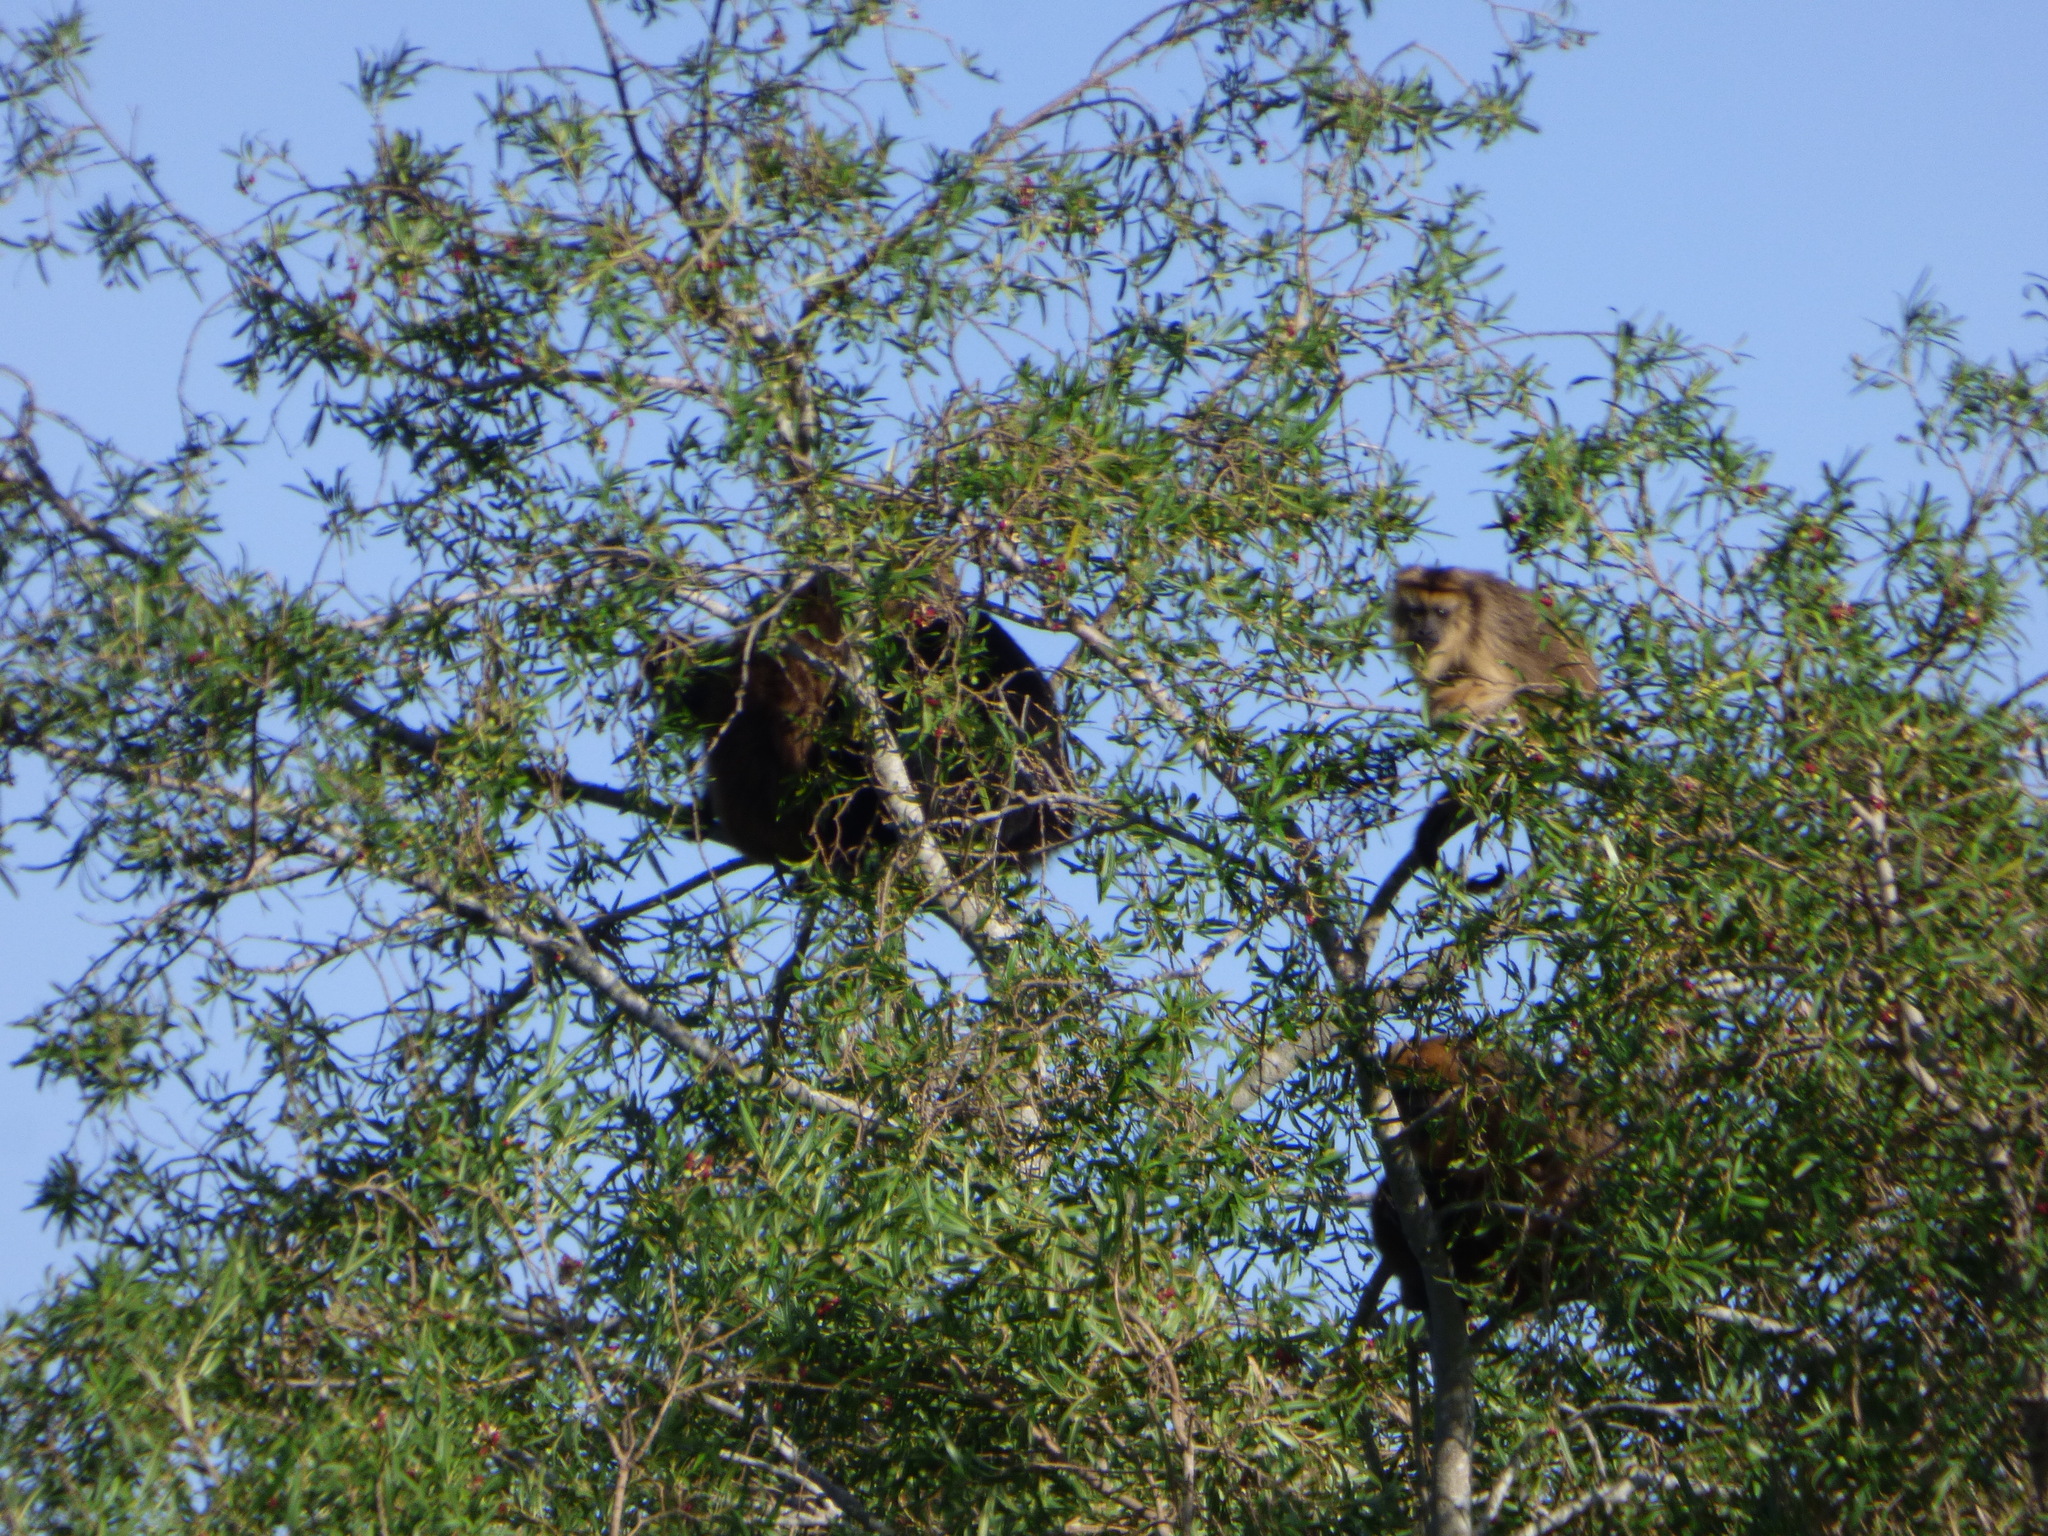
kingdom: Animalia
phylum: Chordata
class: Mammalia
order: Primates
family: Atelidae
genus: Alouatta
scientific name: Alouatta caraya
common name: Black howler
